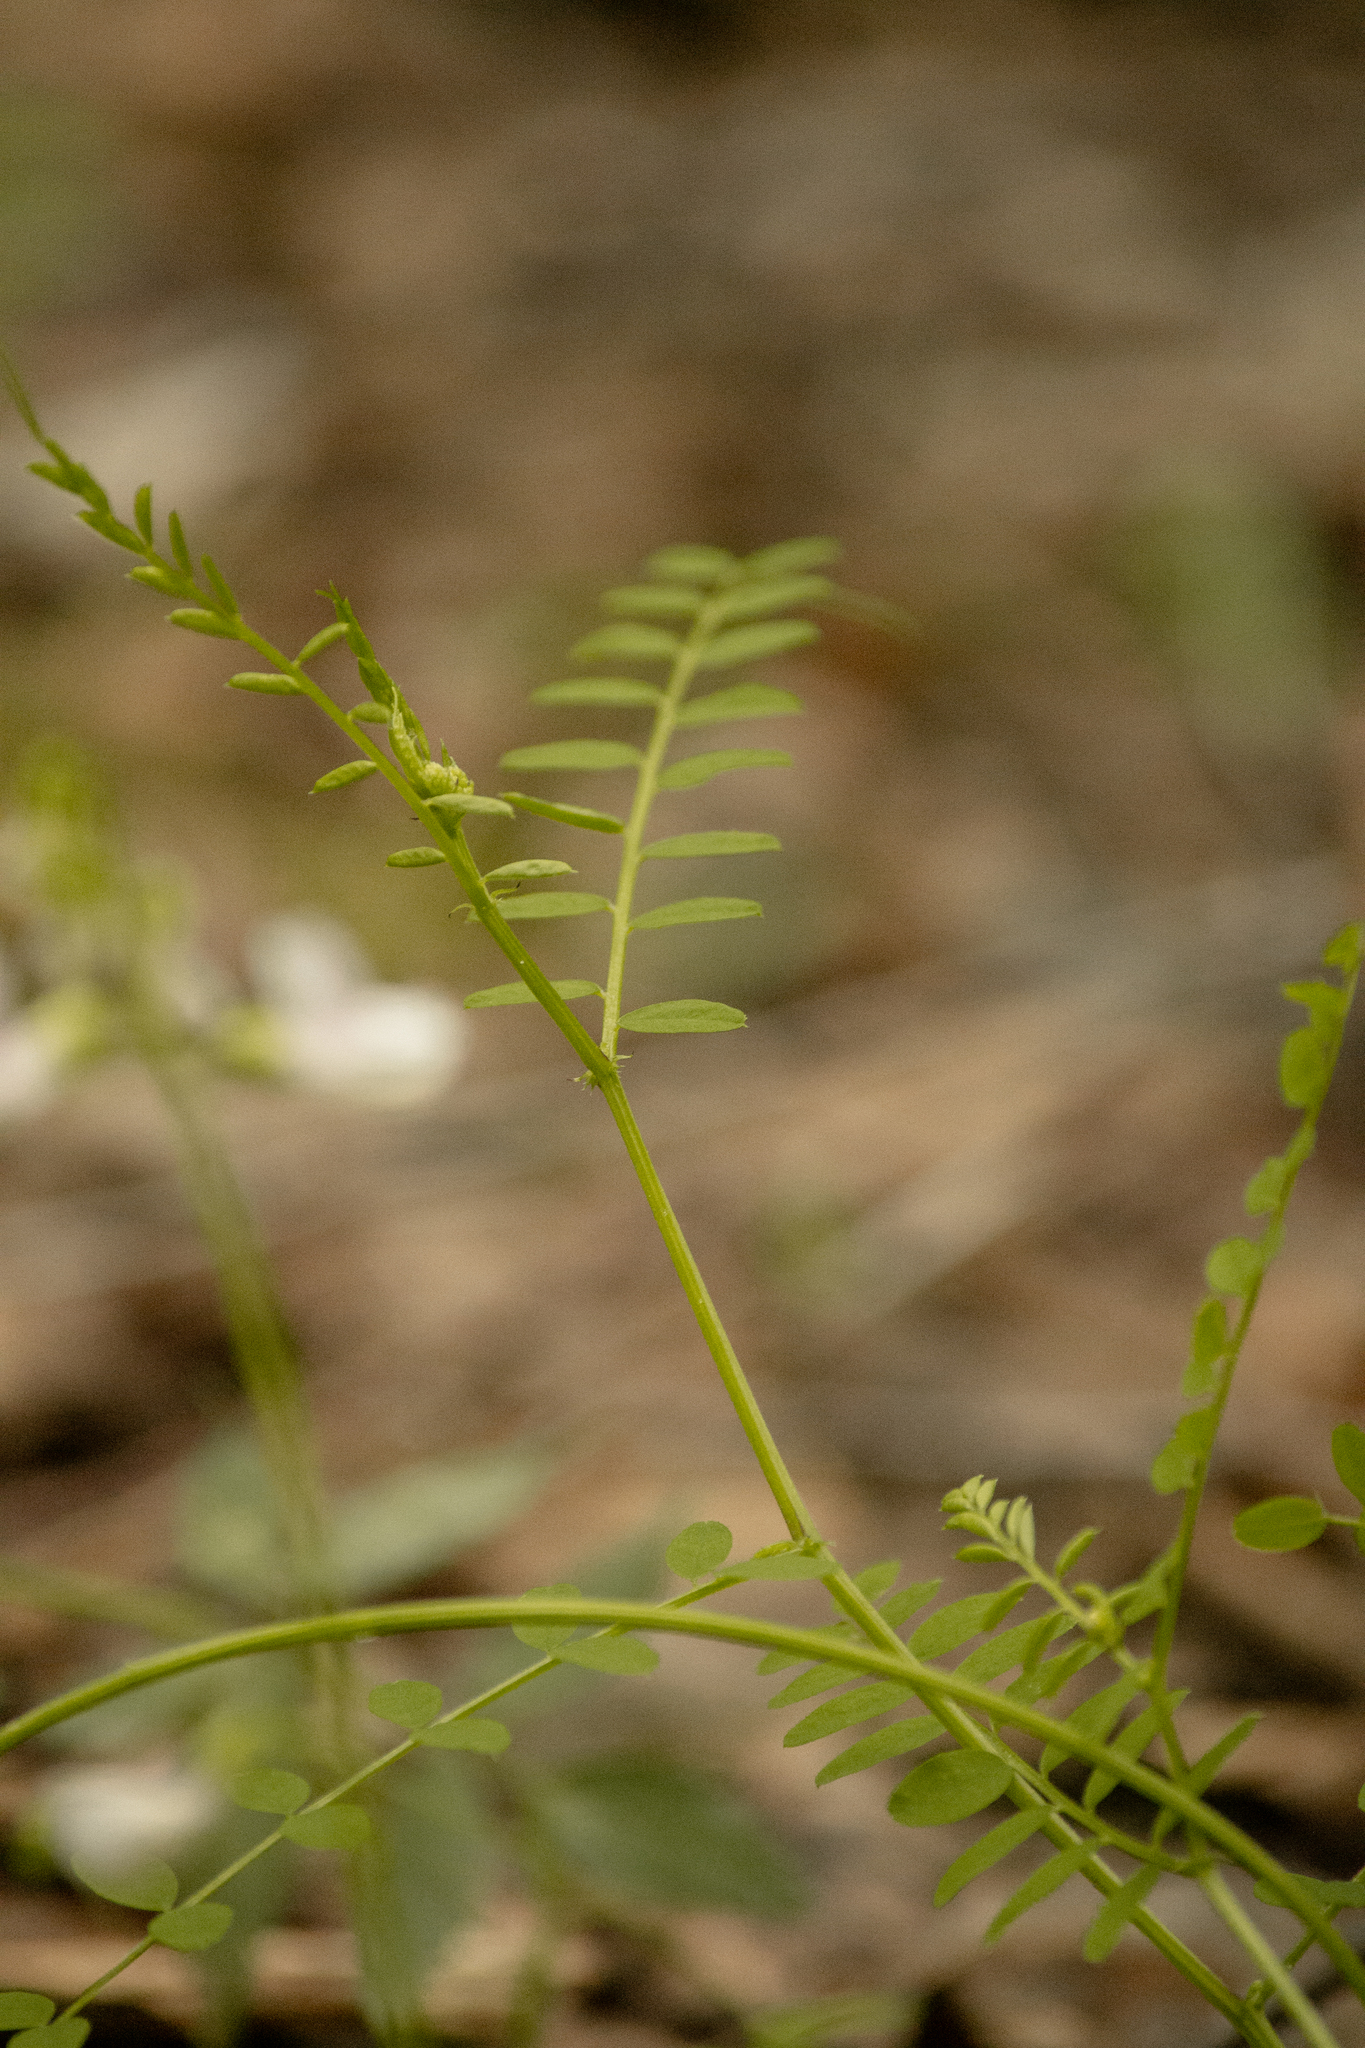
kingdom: Plantae
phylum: Tracheophyta
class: Magnoliopsida
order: Fabales
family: Fabaceae
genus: Vicia
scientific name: Vicia sylvatica
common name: Wood vetch
